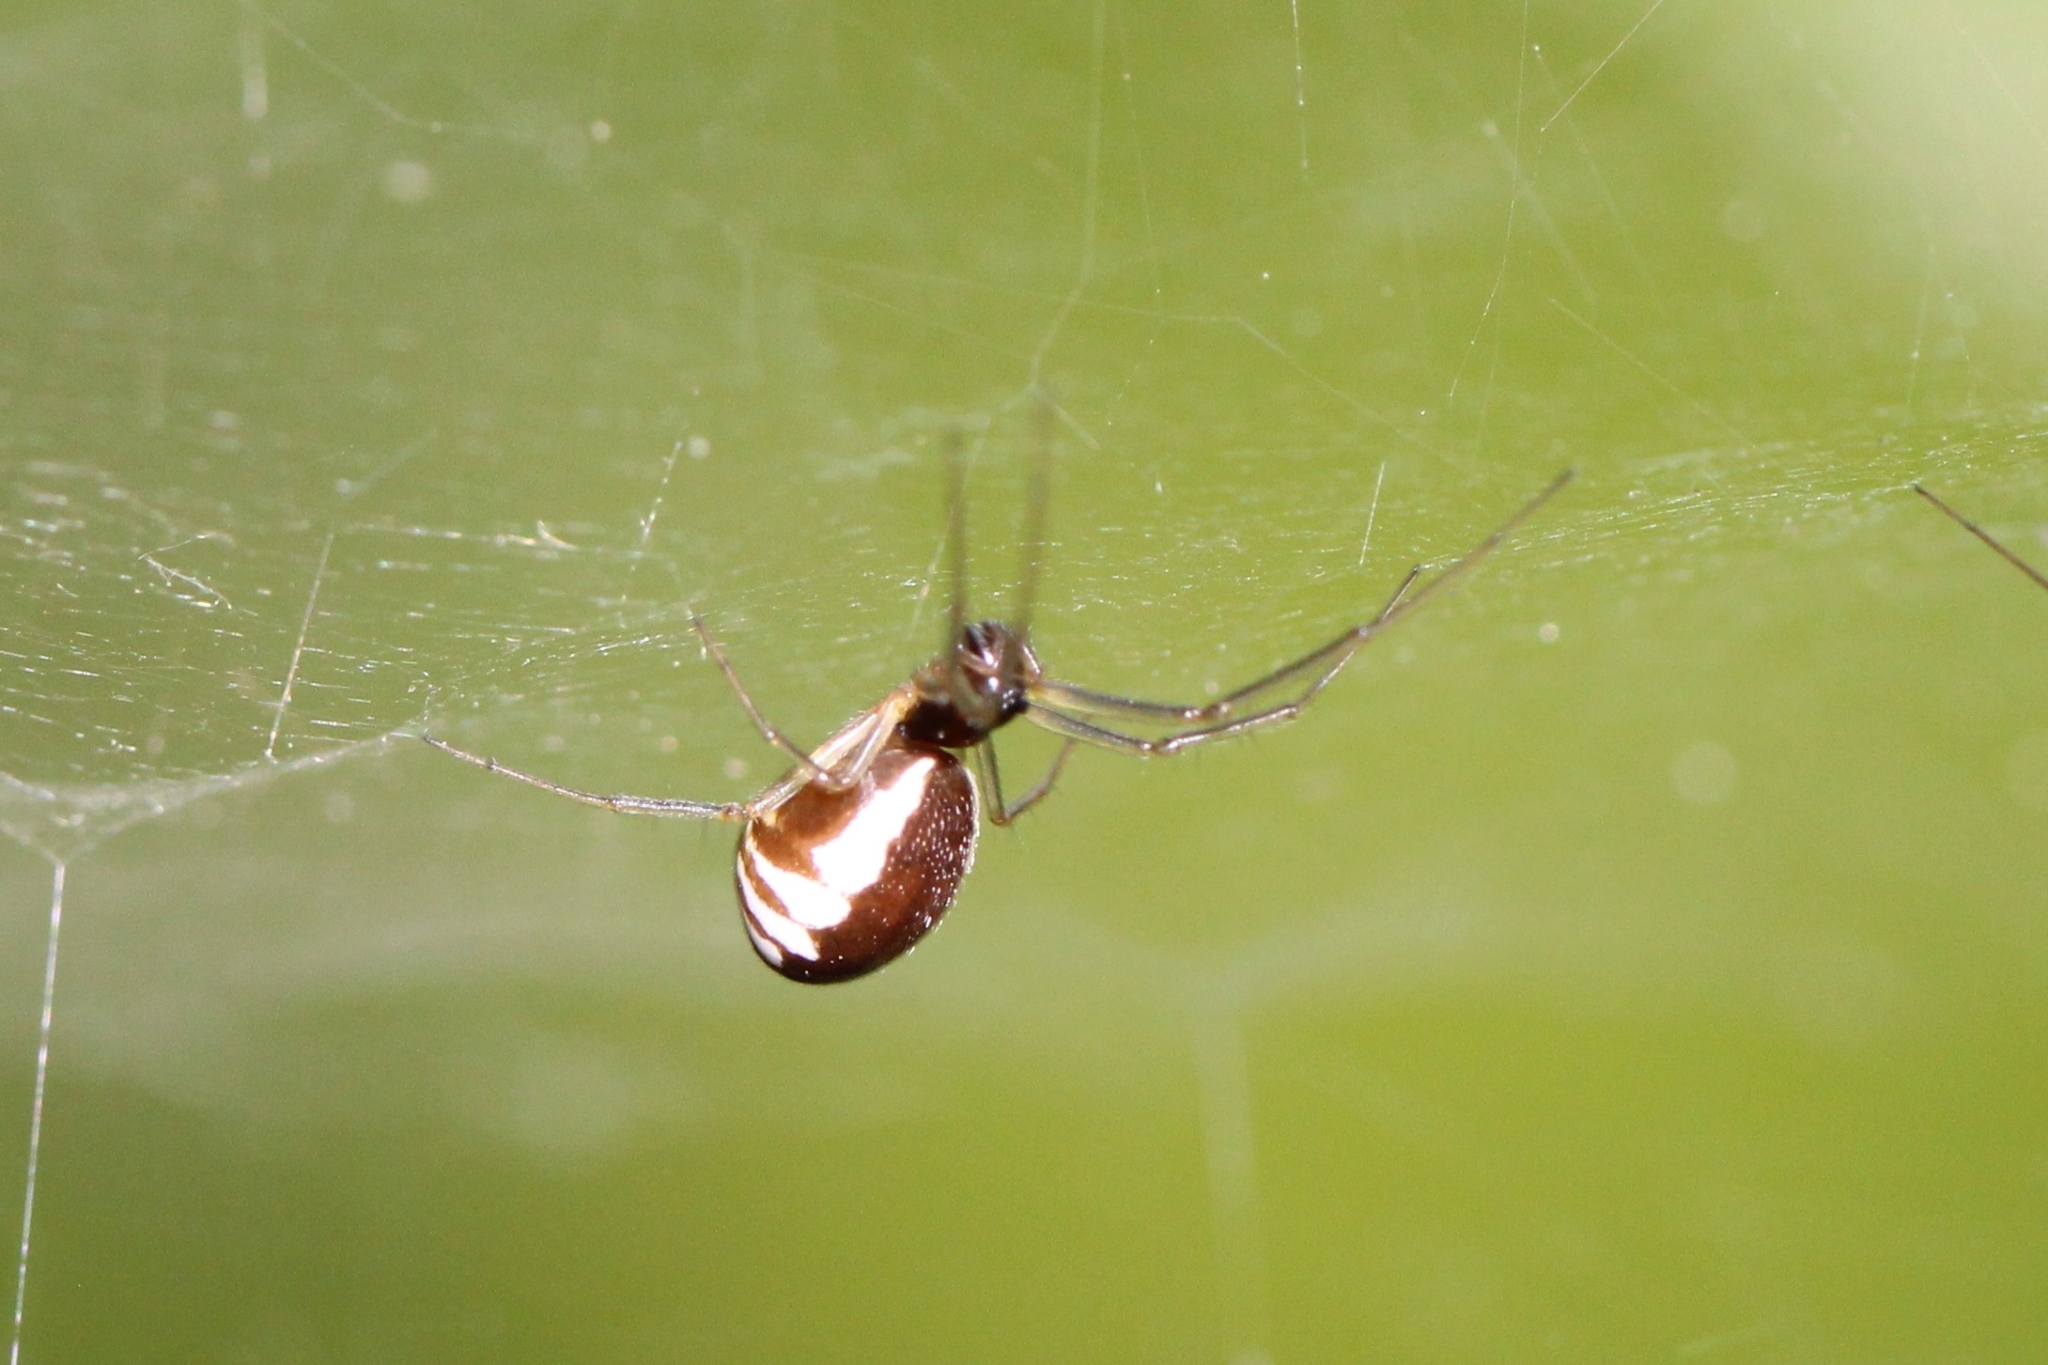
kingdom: Animalia
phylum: Arthropoda
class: Arachnida
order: Araneae
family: Linyphiidae
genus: Frontinella
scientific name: Frontinella pyramitela
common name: Bowl-and-doily spider
